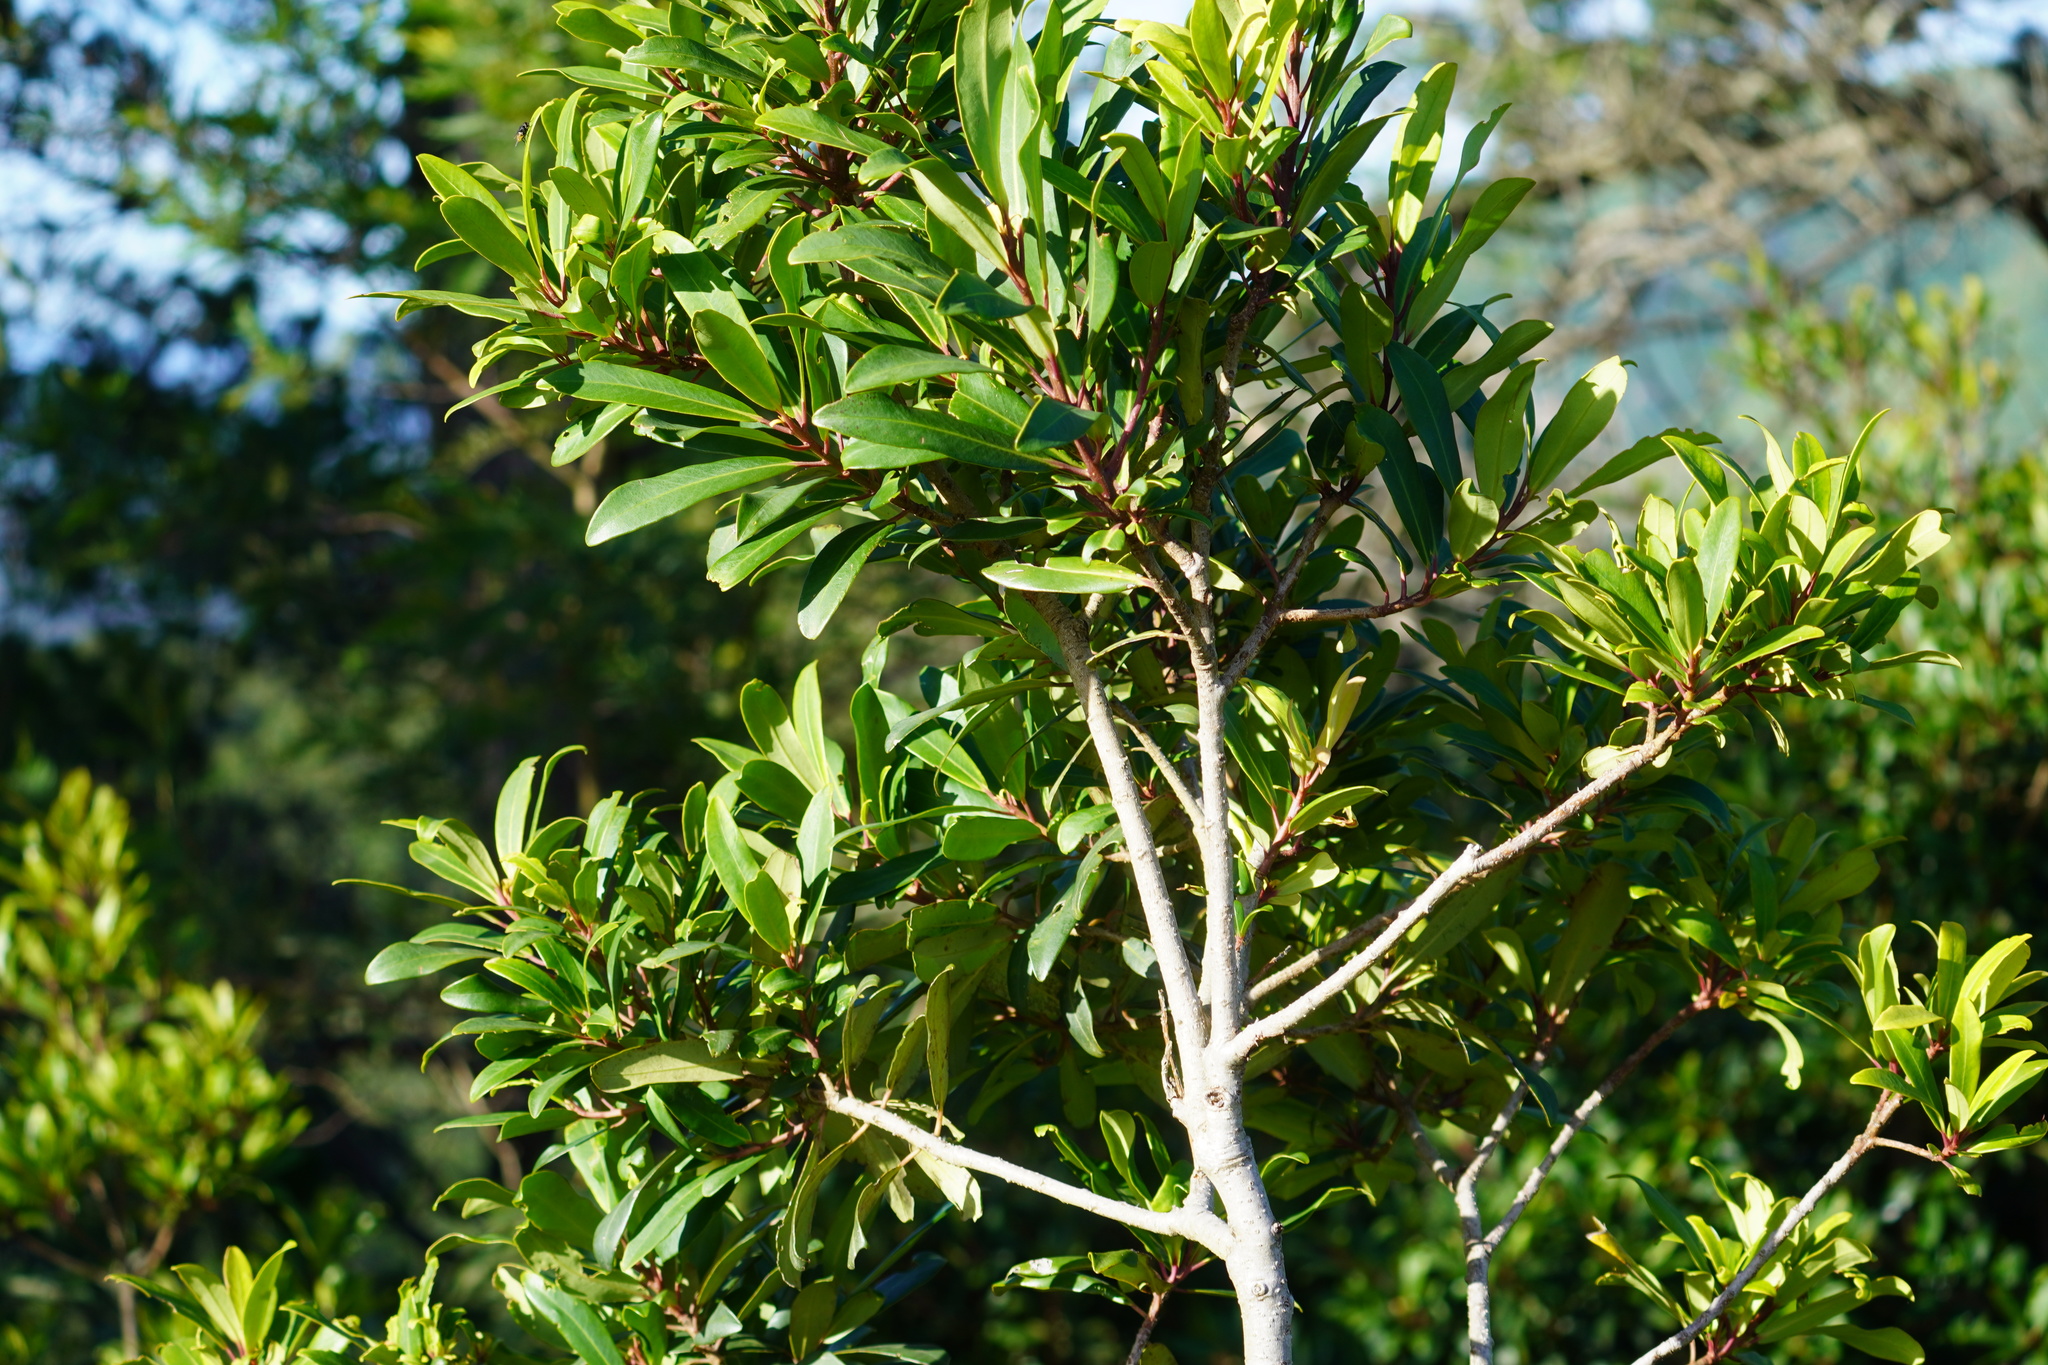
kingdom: Plantae
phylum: Tracheophyta
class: Magnoliopsida
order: Ericales
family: Primulaceae
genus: Myrsine
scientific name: Myrsine melanophloeos
